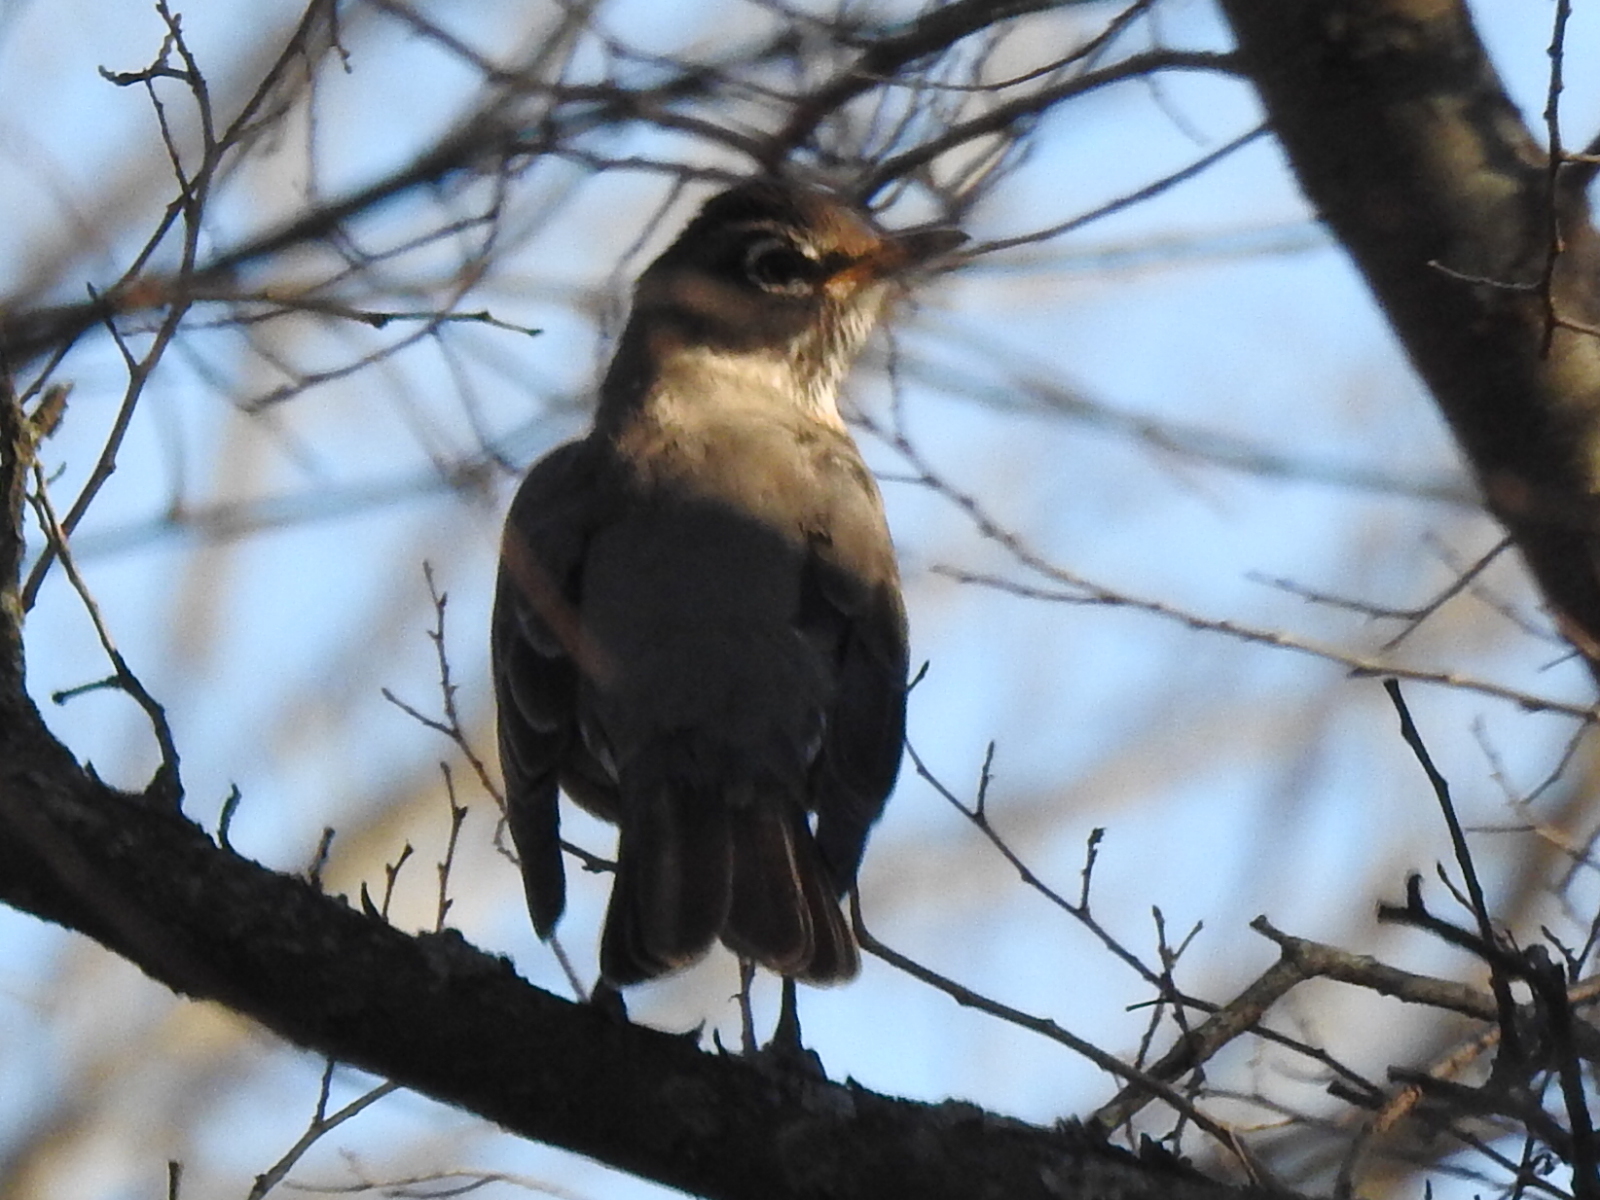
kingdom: Animalia
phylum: Chordata
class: Aves
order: Passeriformes
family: Turdidae
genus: Turdus
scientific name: Turdus migratorius
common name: American robin
